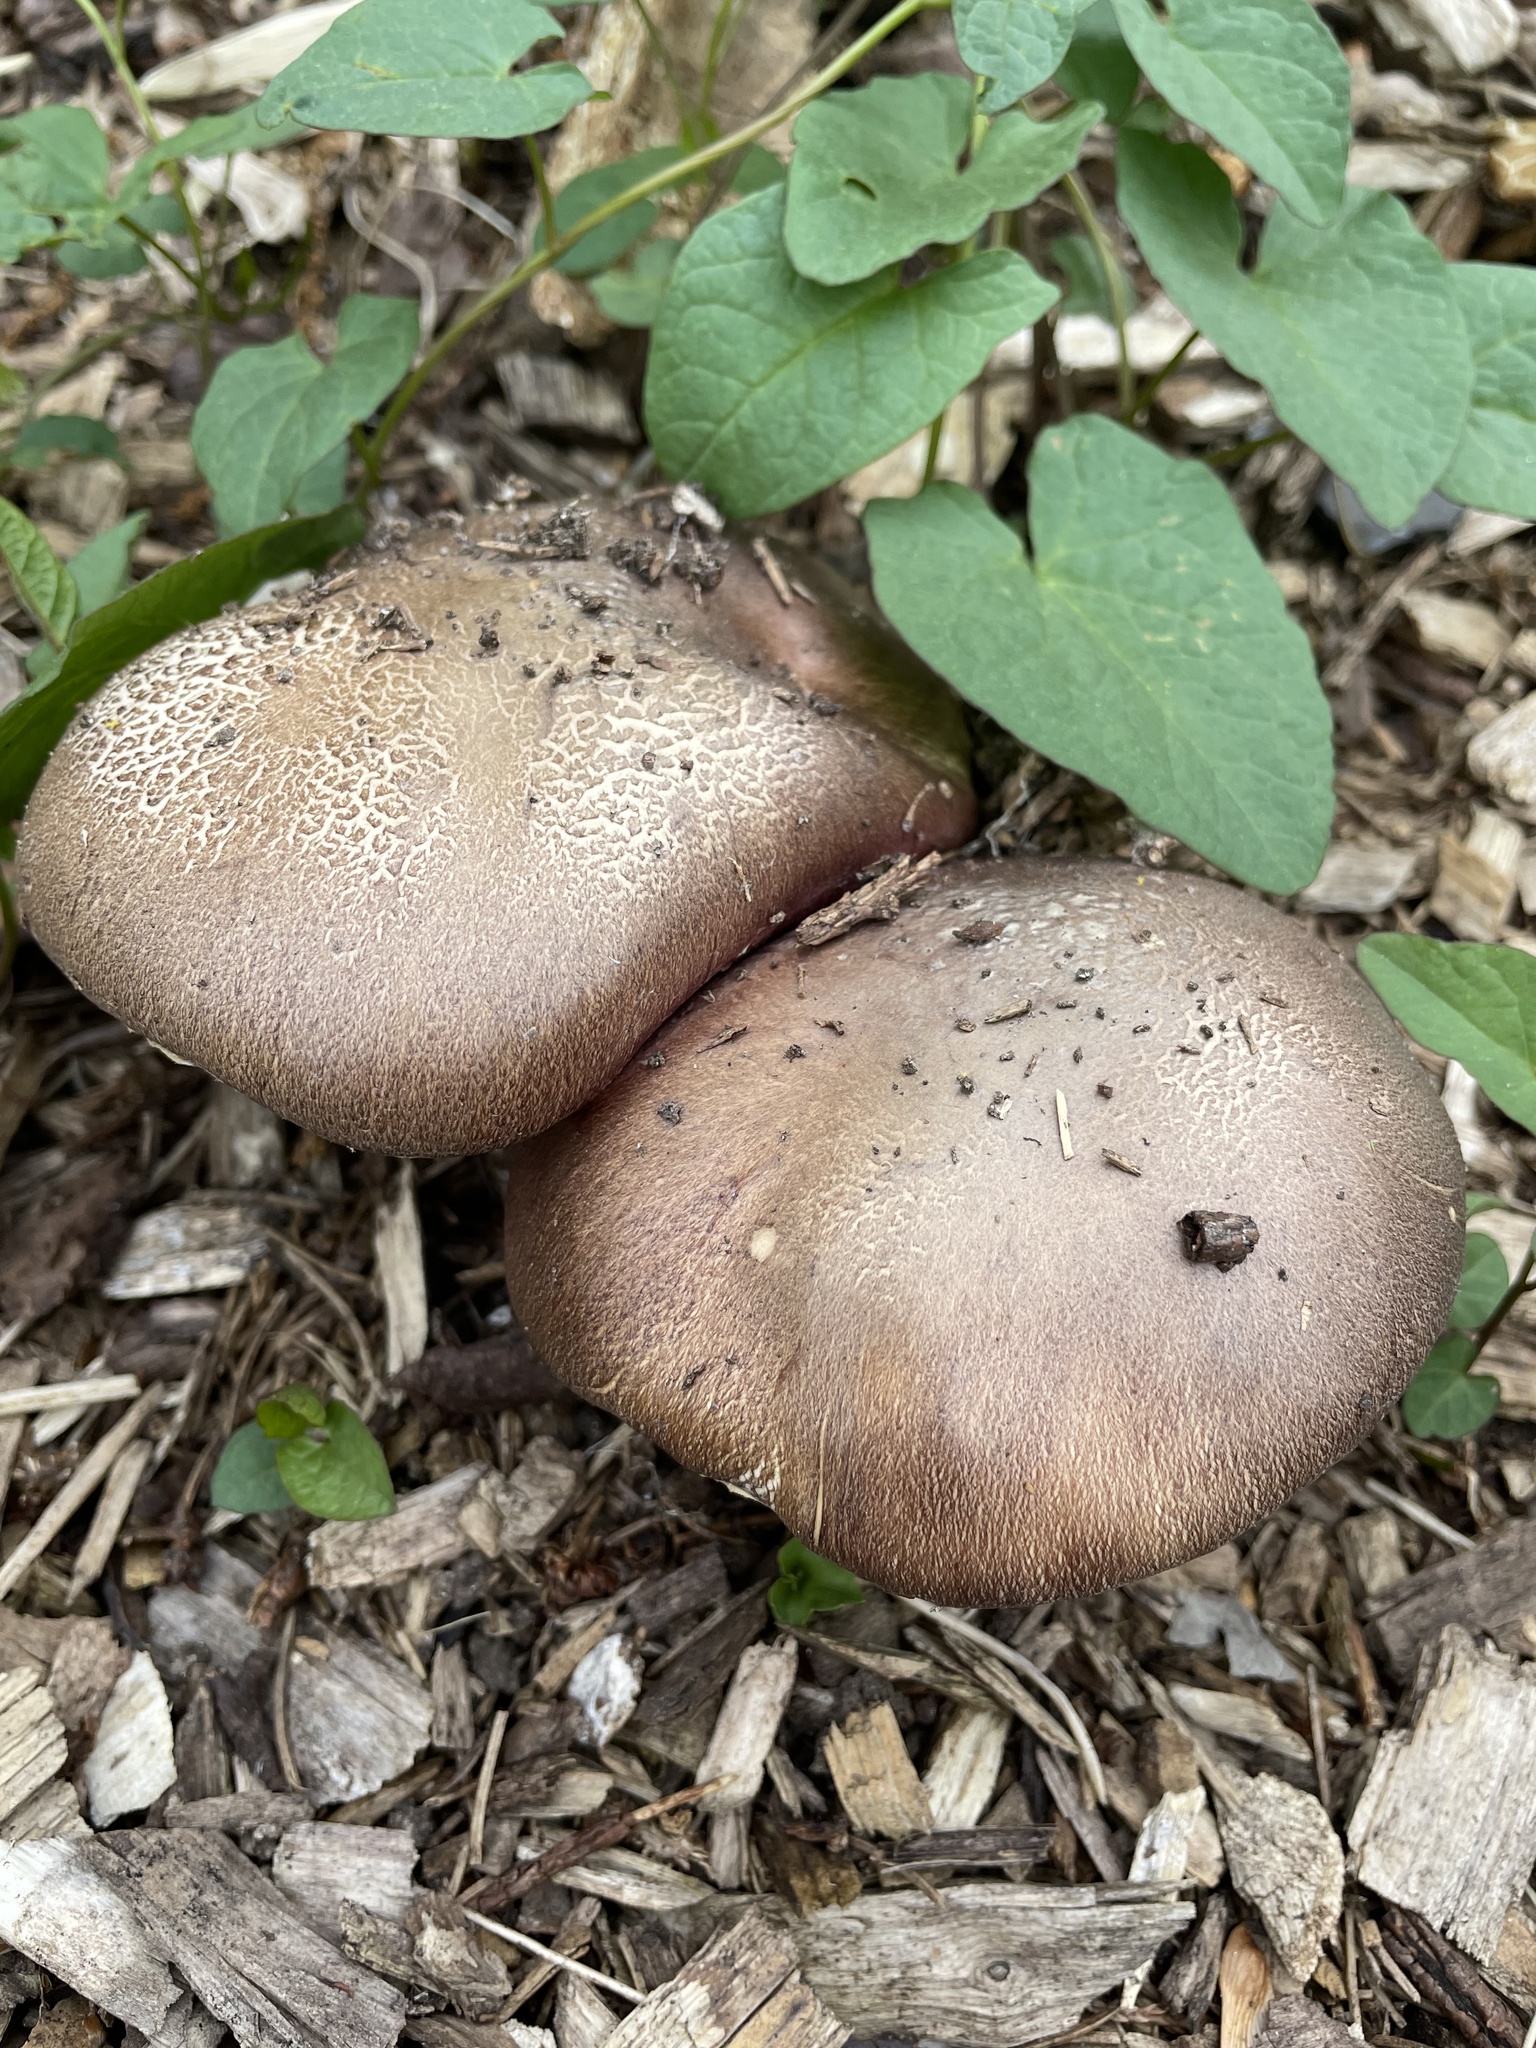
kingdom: Fungi
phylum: Basidiomycota
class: Agaricomycetes
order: Agaricales
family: Strophariaceae
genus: Stropharia
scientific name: Stropharia rugosoannulata
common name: Wine roundhead
